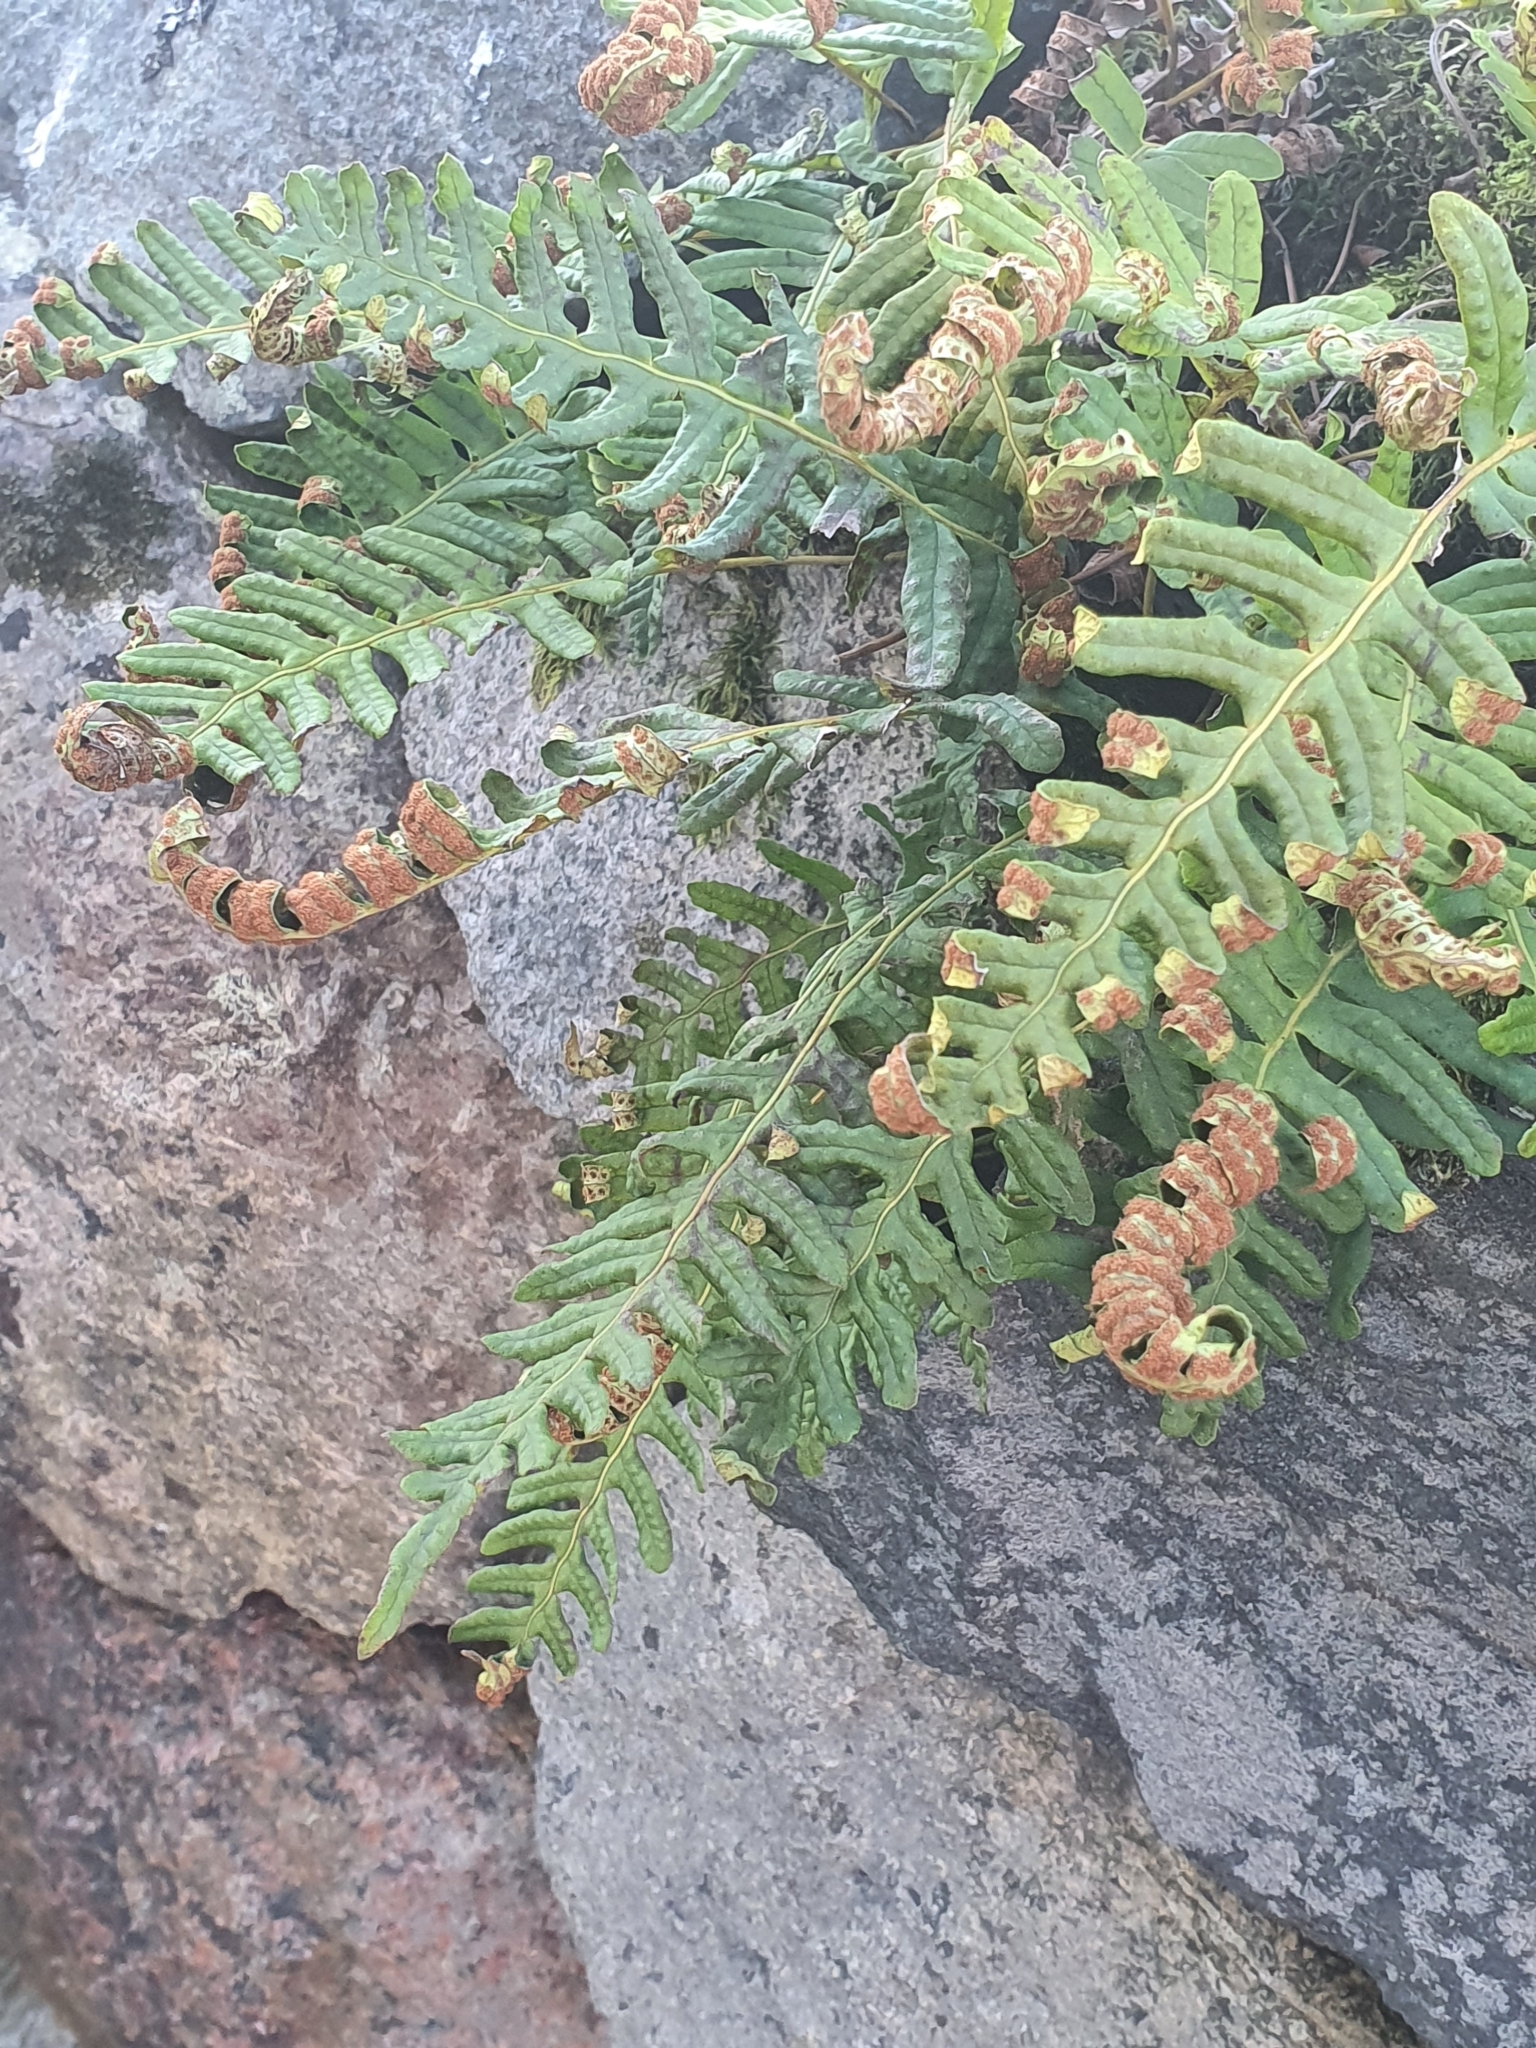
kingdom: Plantae
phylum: Tracheophyta
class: Polypodiopsida
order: Polypodiales
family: Polypodiaceae
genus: Polypodium
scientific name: Polypodium vulgare
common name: Common polypody
